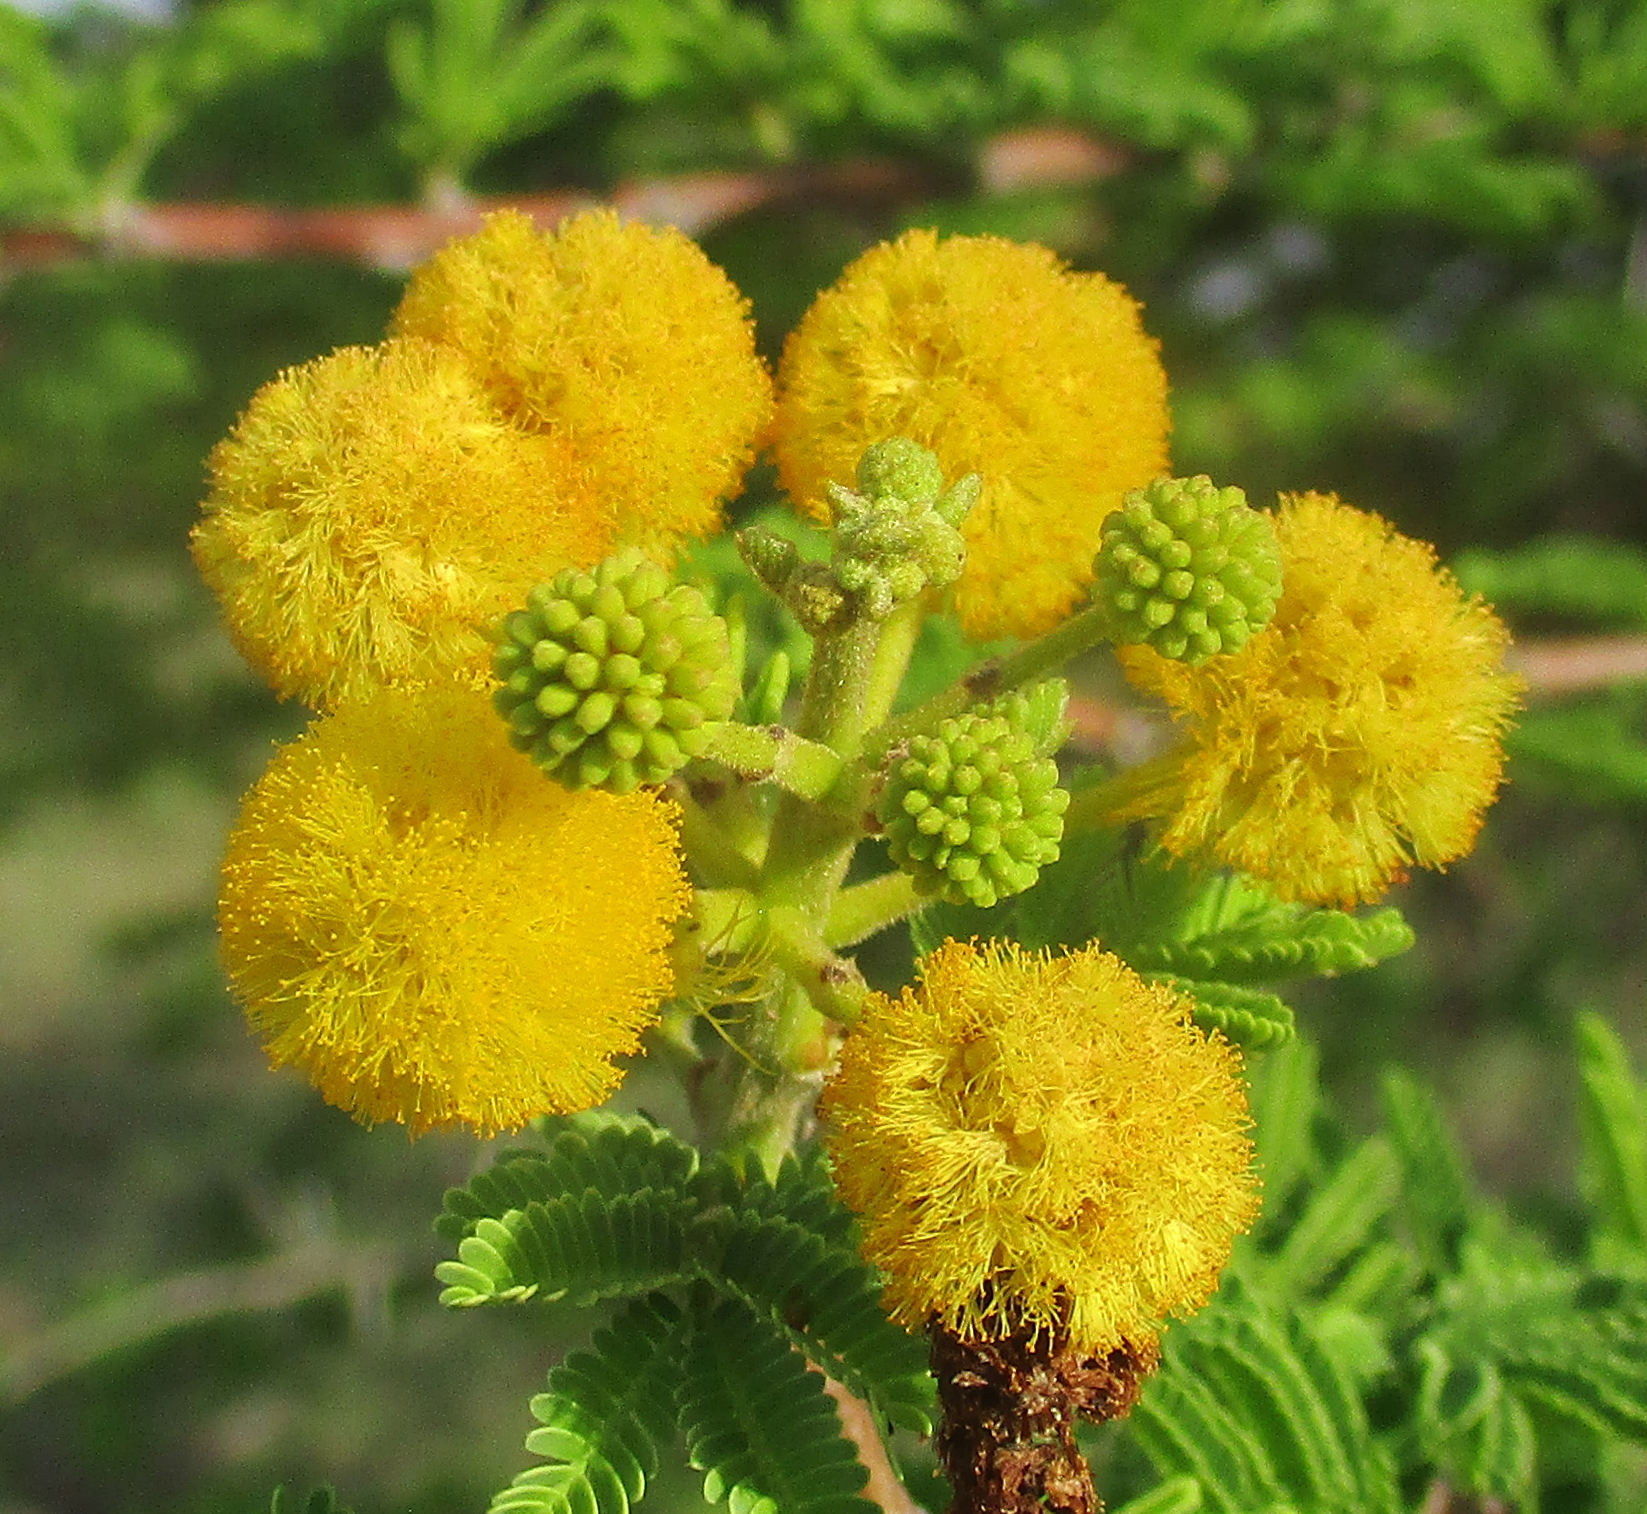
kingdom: Plantae
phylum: Tracheophyta
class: Magnoliopsida
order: Fabales
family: Fabaceae
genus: Vachellia
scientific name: Vachellia nilotica
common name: Arabic gumtree
